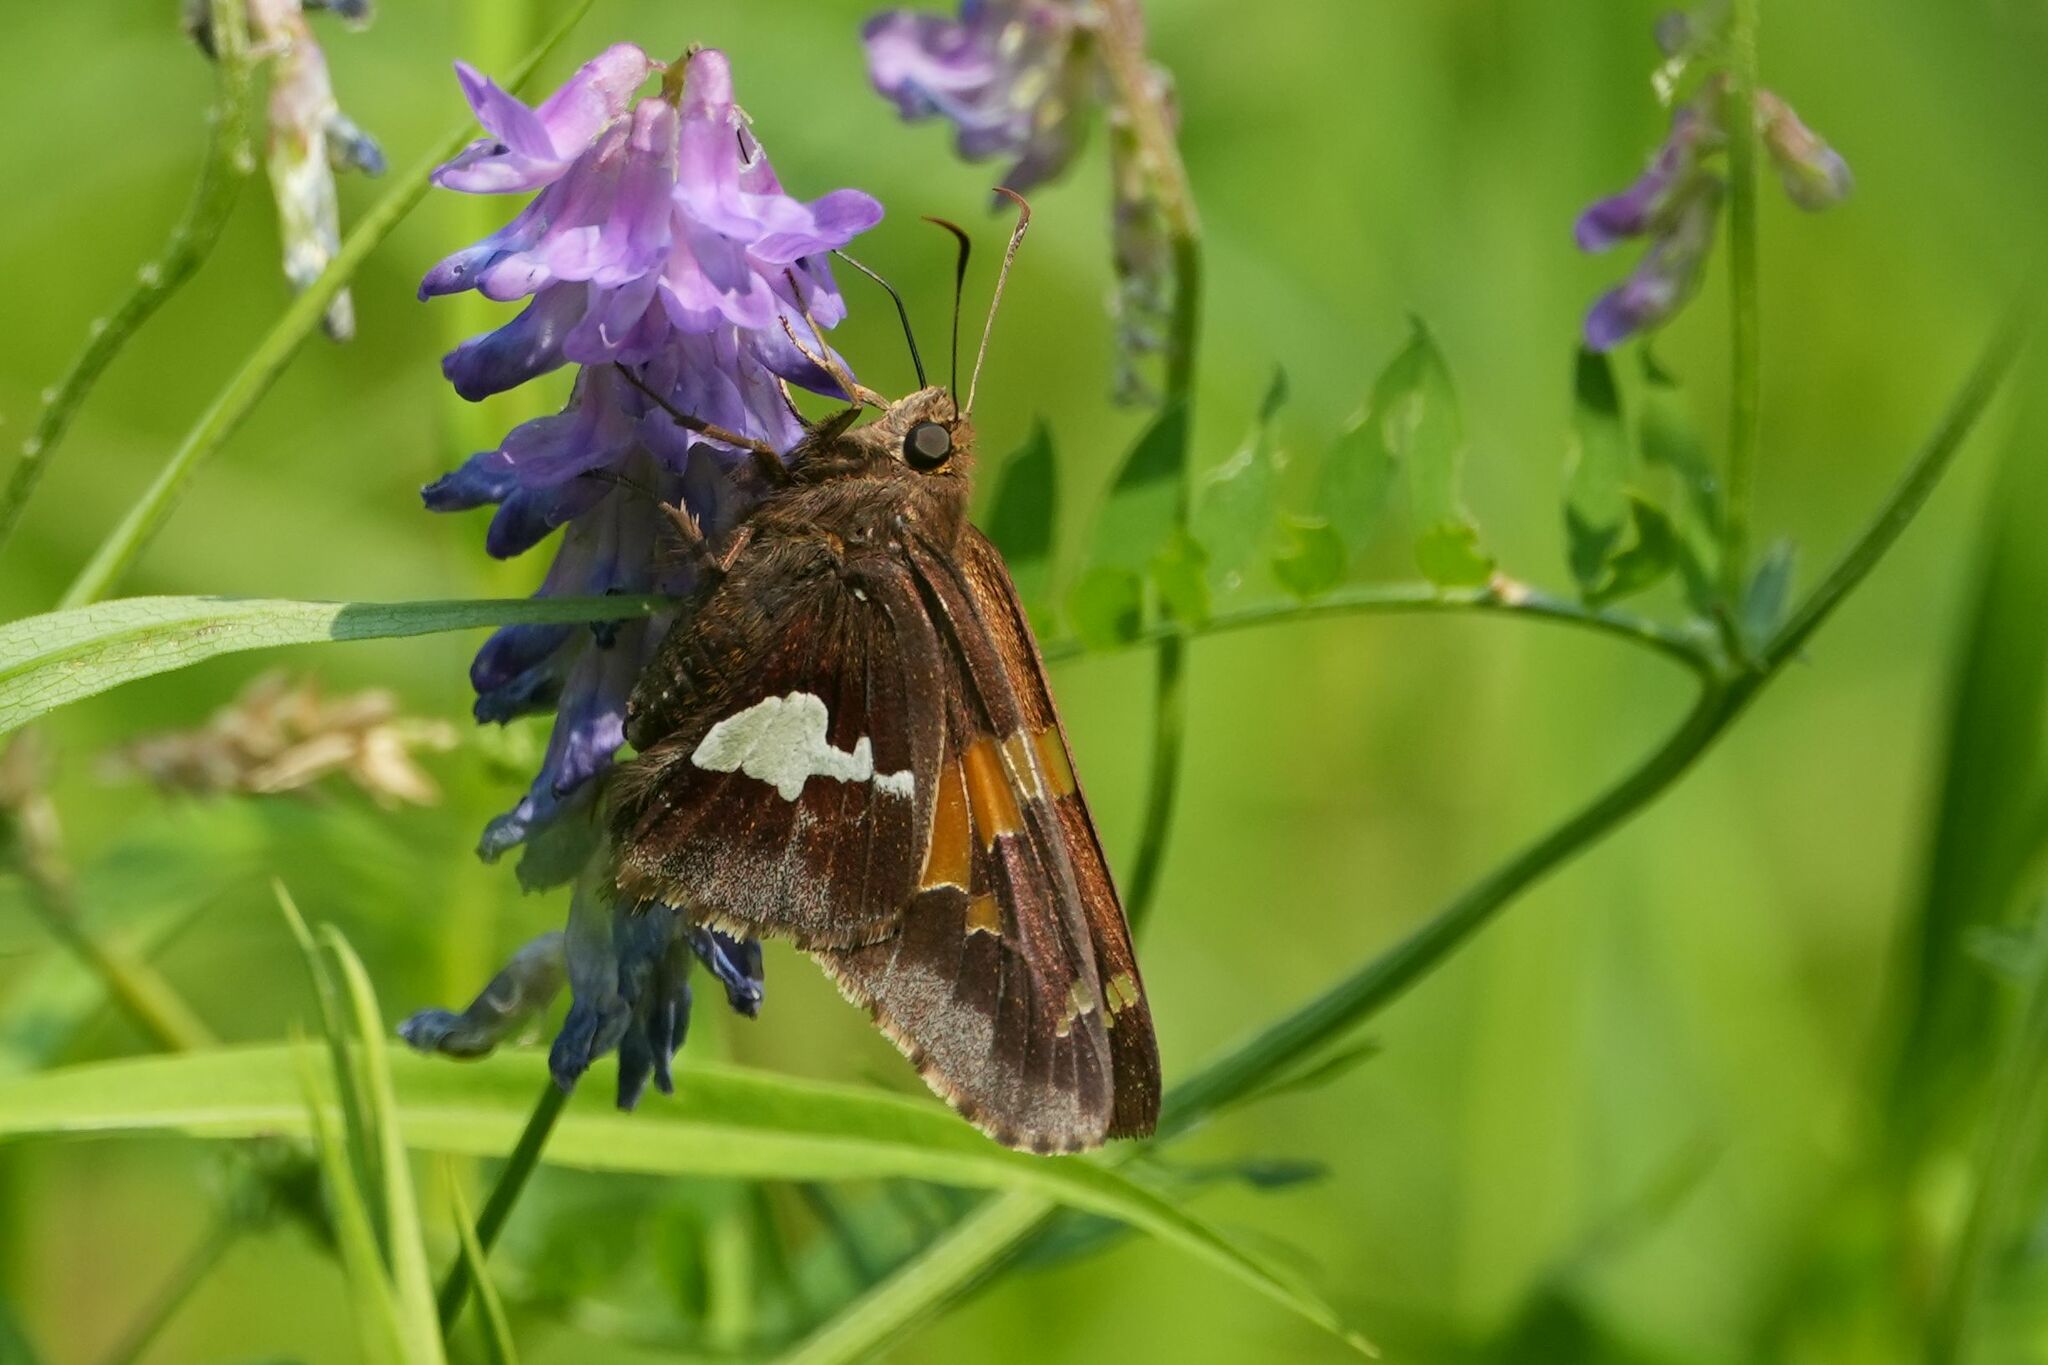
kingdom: Animalia
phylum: Arthropoda
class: Insecta
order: Lepidoptera
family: Hesperiidae
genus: Epargyreus
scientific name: Epargyreus clarus
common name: Silver-spotted skipper
